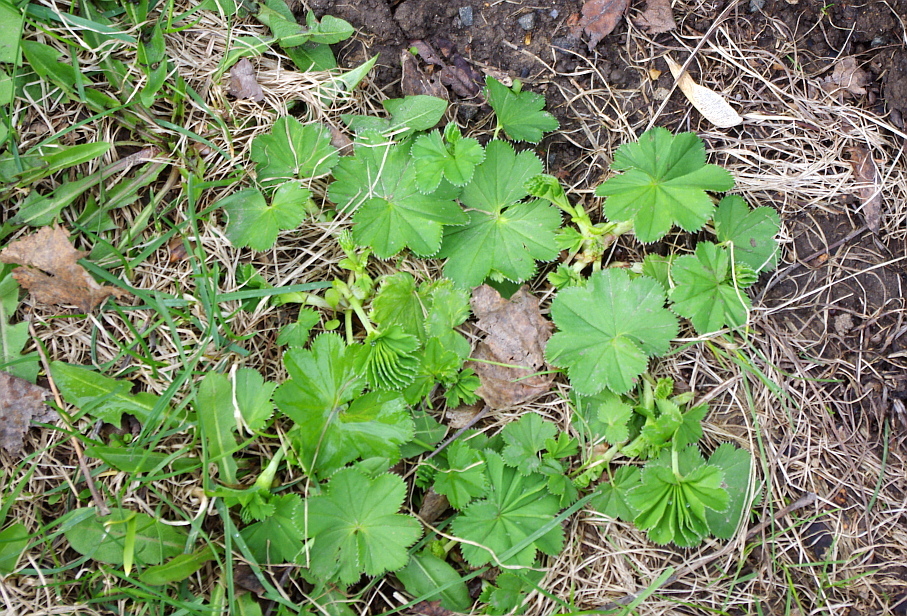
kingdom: Plantae
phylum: Tracheophyta
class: Magnoliopsida
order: Rosales
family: Rosaceae
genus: Alchemilla
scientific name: Alchemilla baltica
